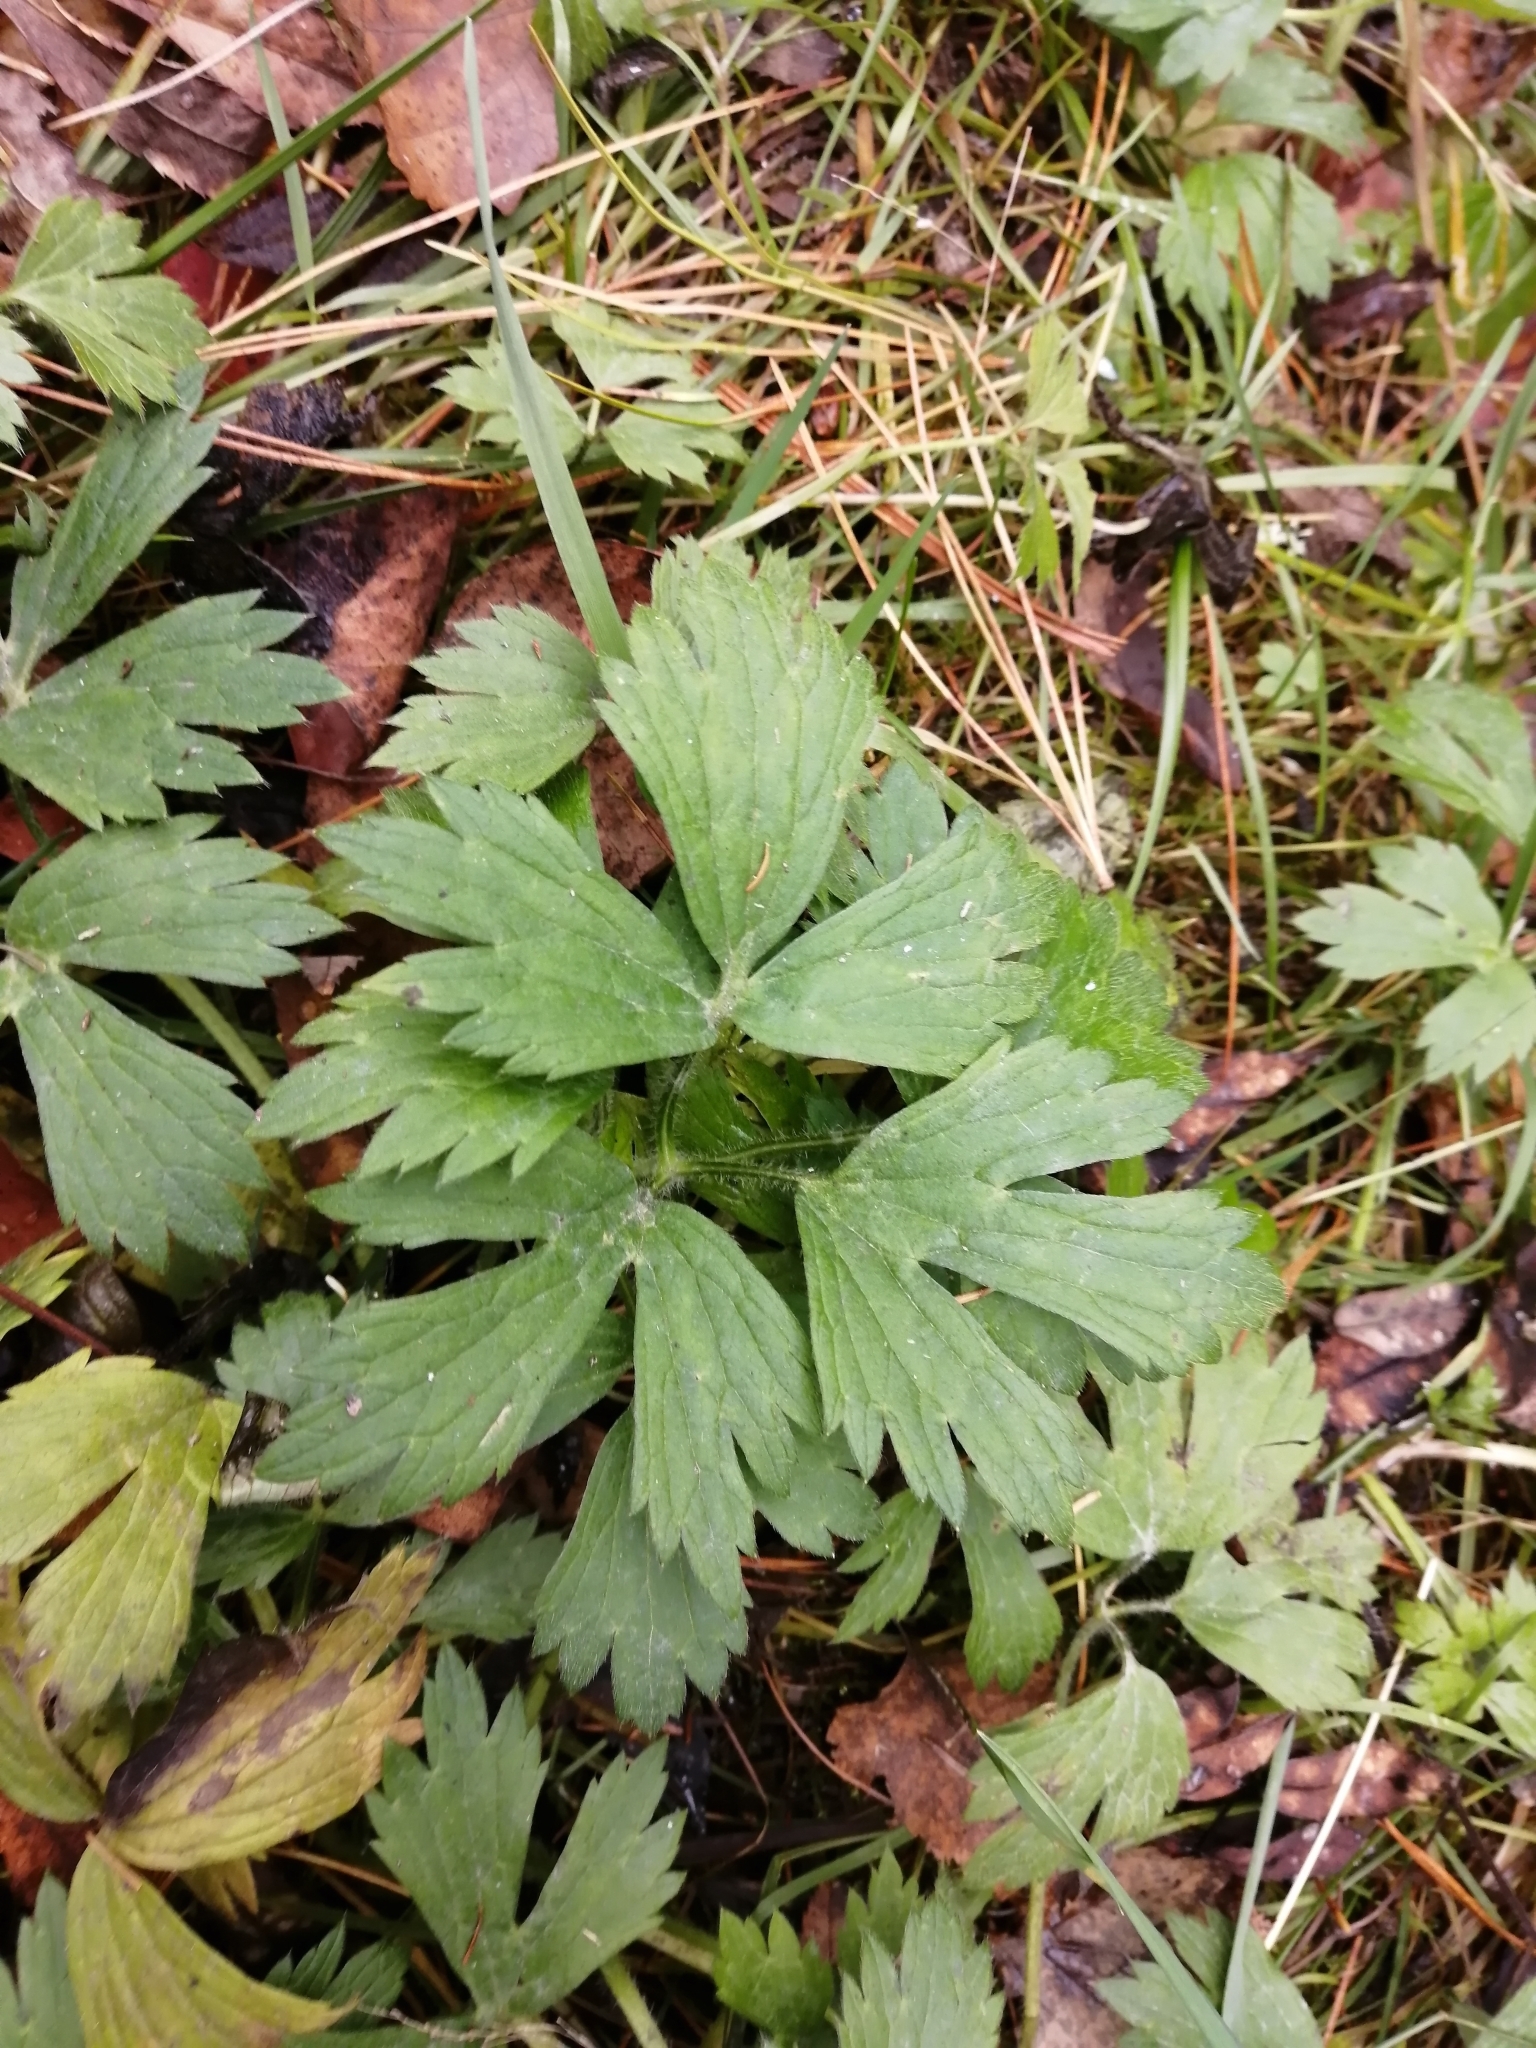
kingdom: Plantae
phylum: Tracheophyta
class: Magnoliopsida
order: Ranunculales
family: Ranunculaceae
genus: Ranunculus
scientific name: Ranunculus repens
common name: Creeping buttercup
